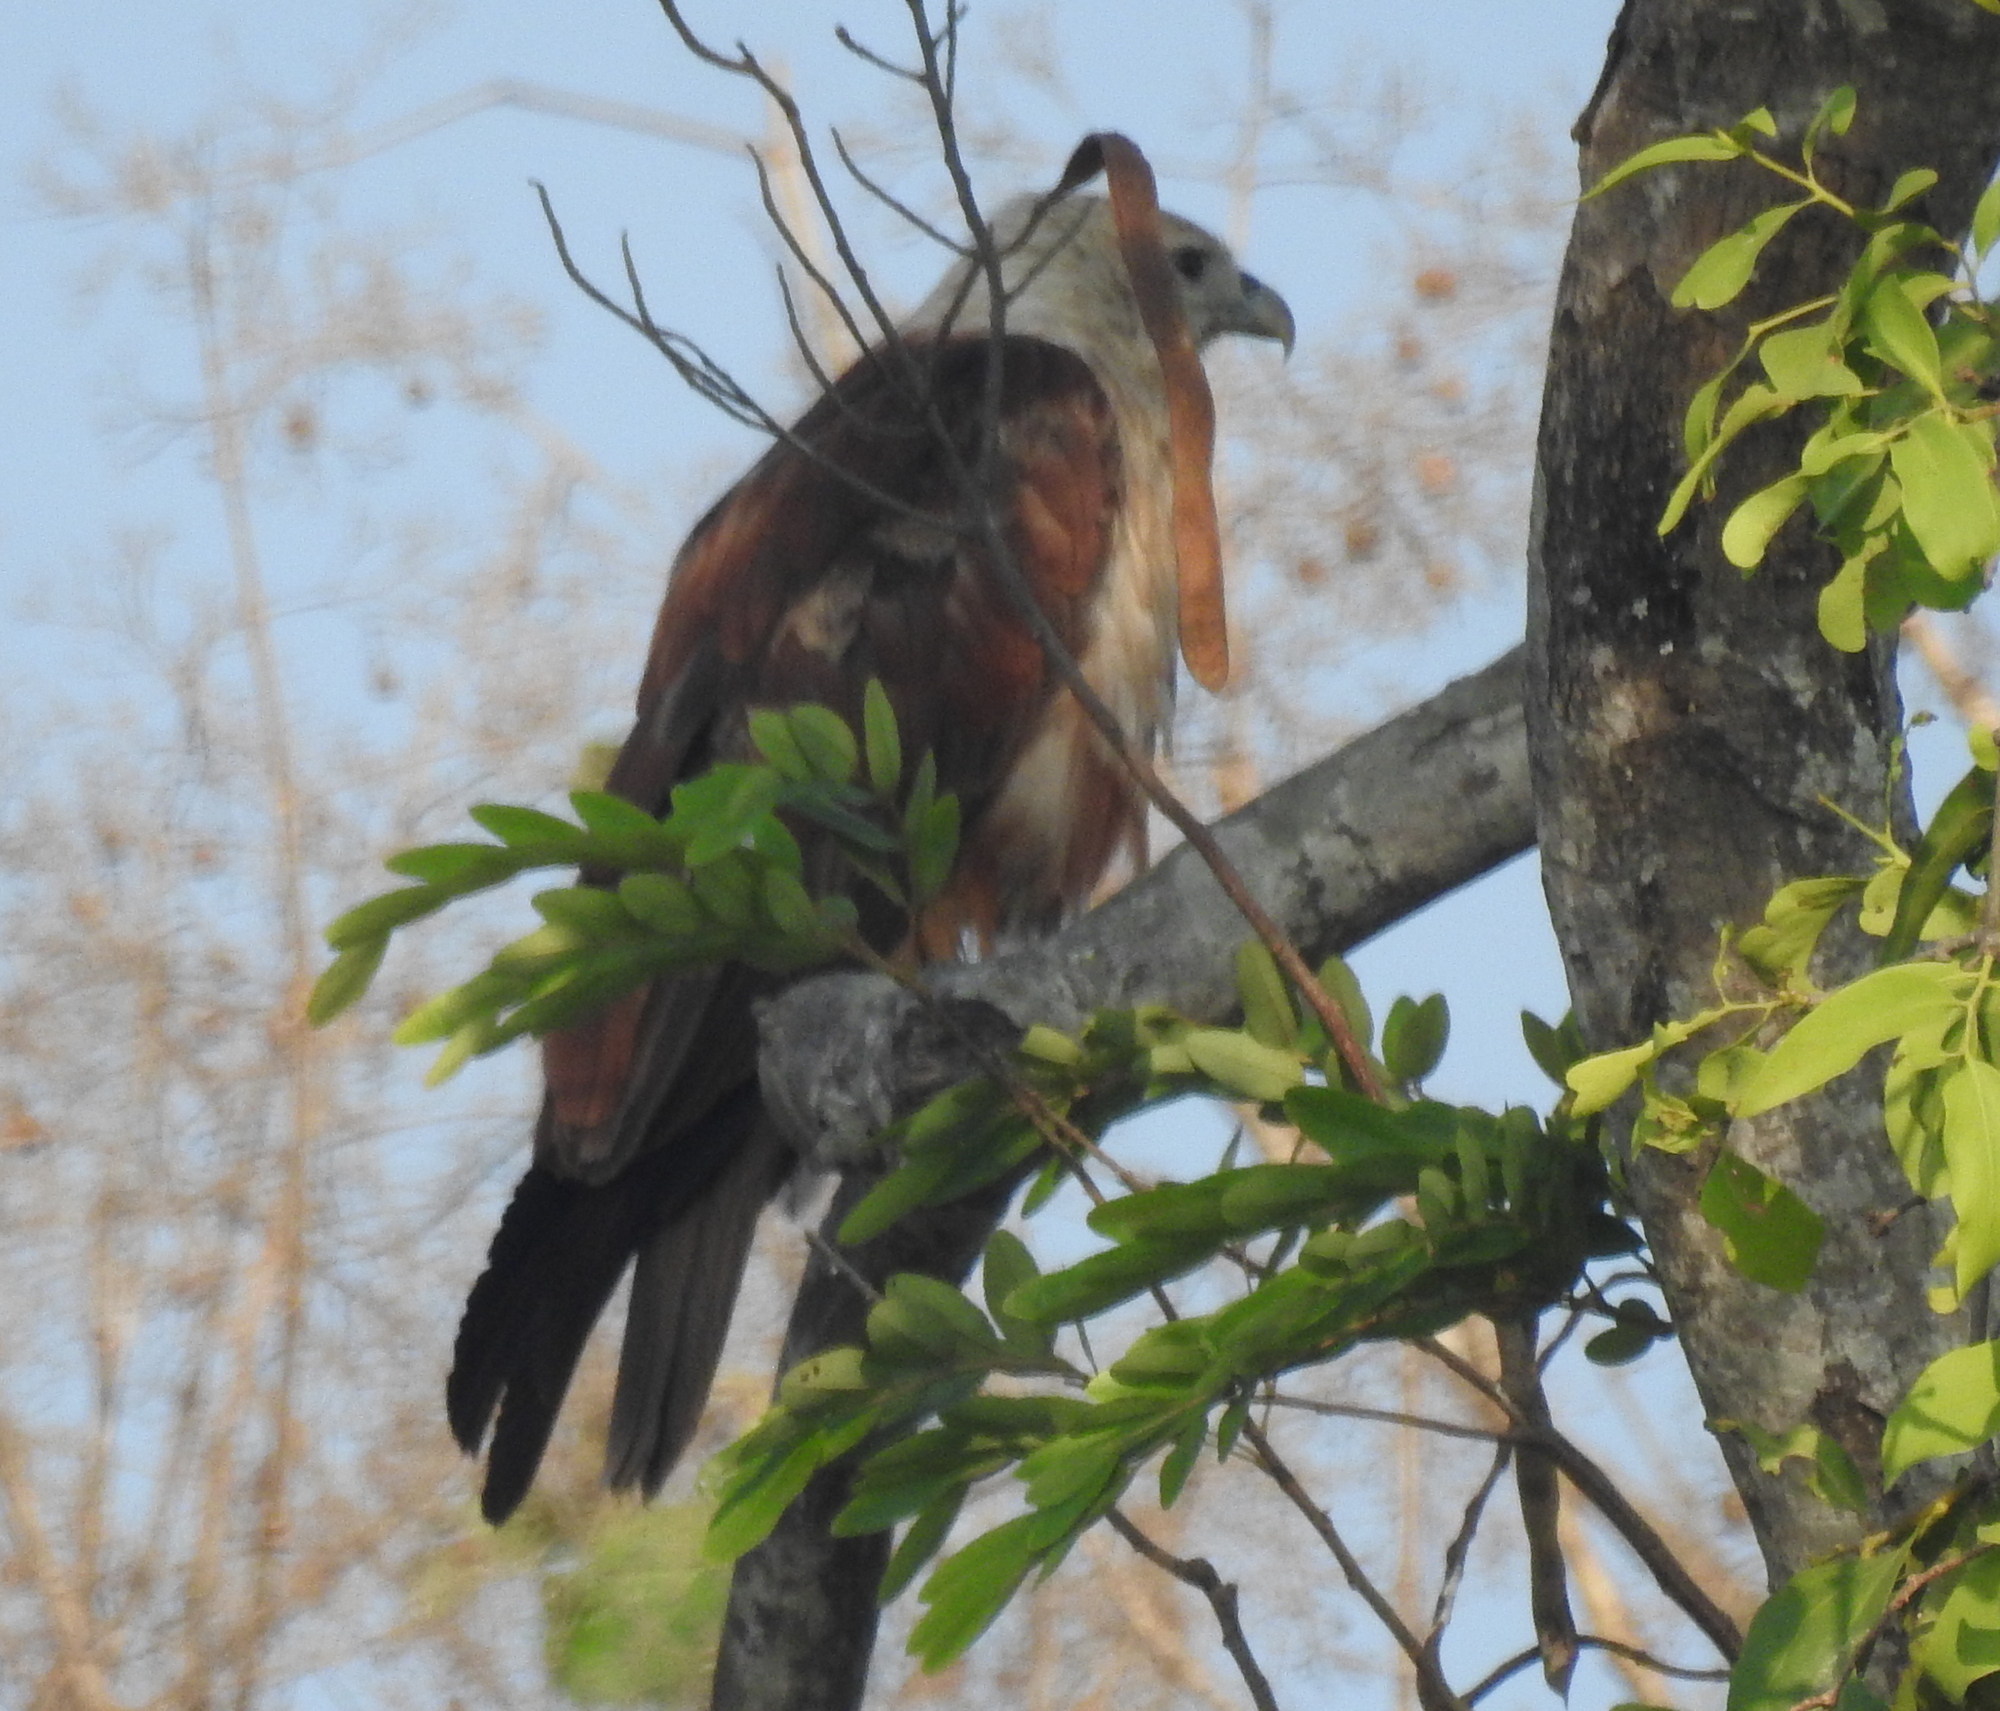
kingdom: Animalia
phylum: Chordata
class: Aves
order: Accipitriformes
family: Accipitridae
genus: Haliastur
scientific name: Haliastur indus
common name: Brahminy kite
